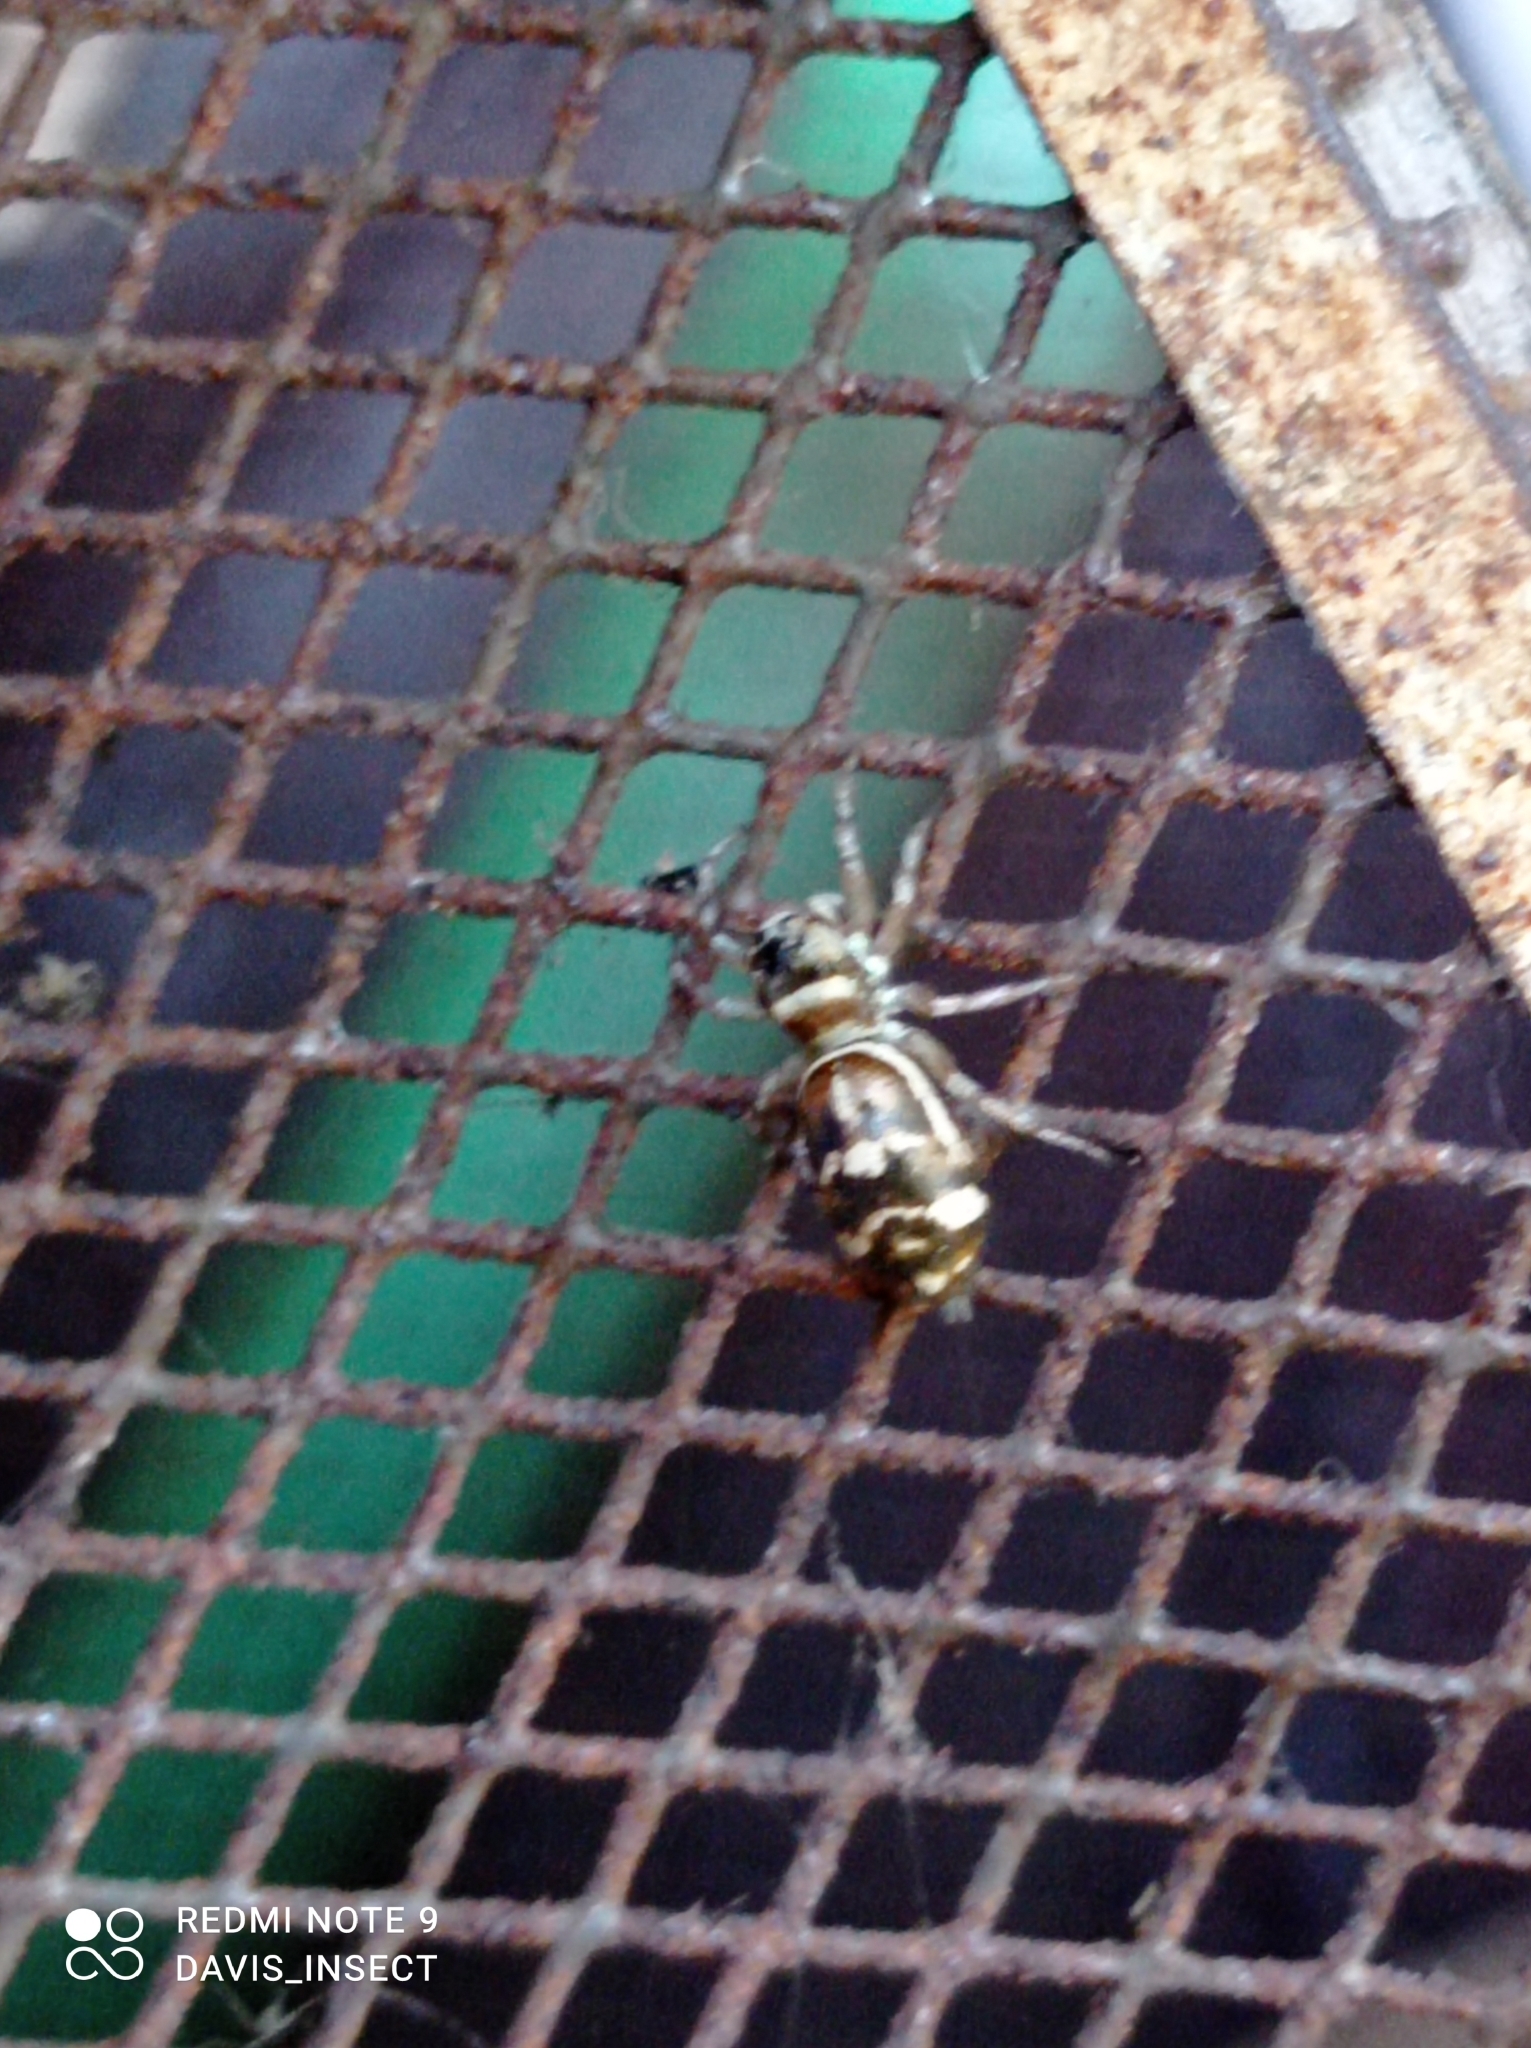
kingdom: Animalia
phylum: Arthropoda
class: Arachnida
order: Araneae
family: Salticidae
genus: Cosmophasis
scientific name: Cosmophasis baehrae
